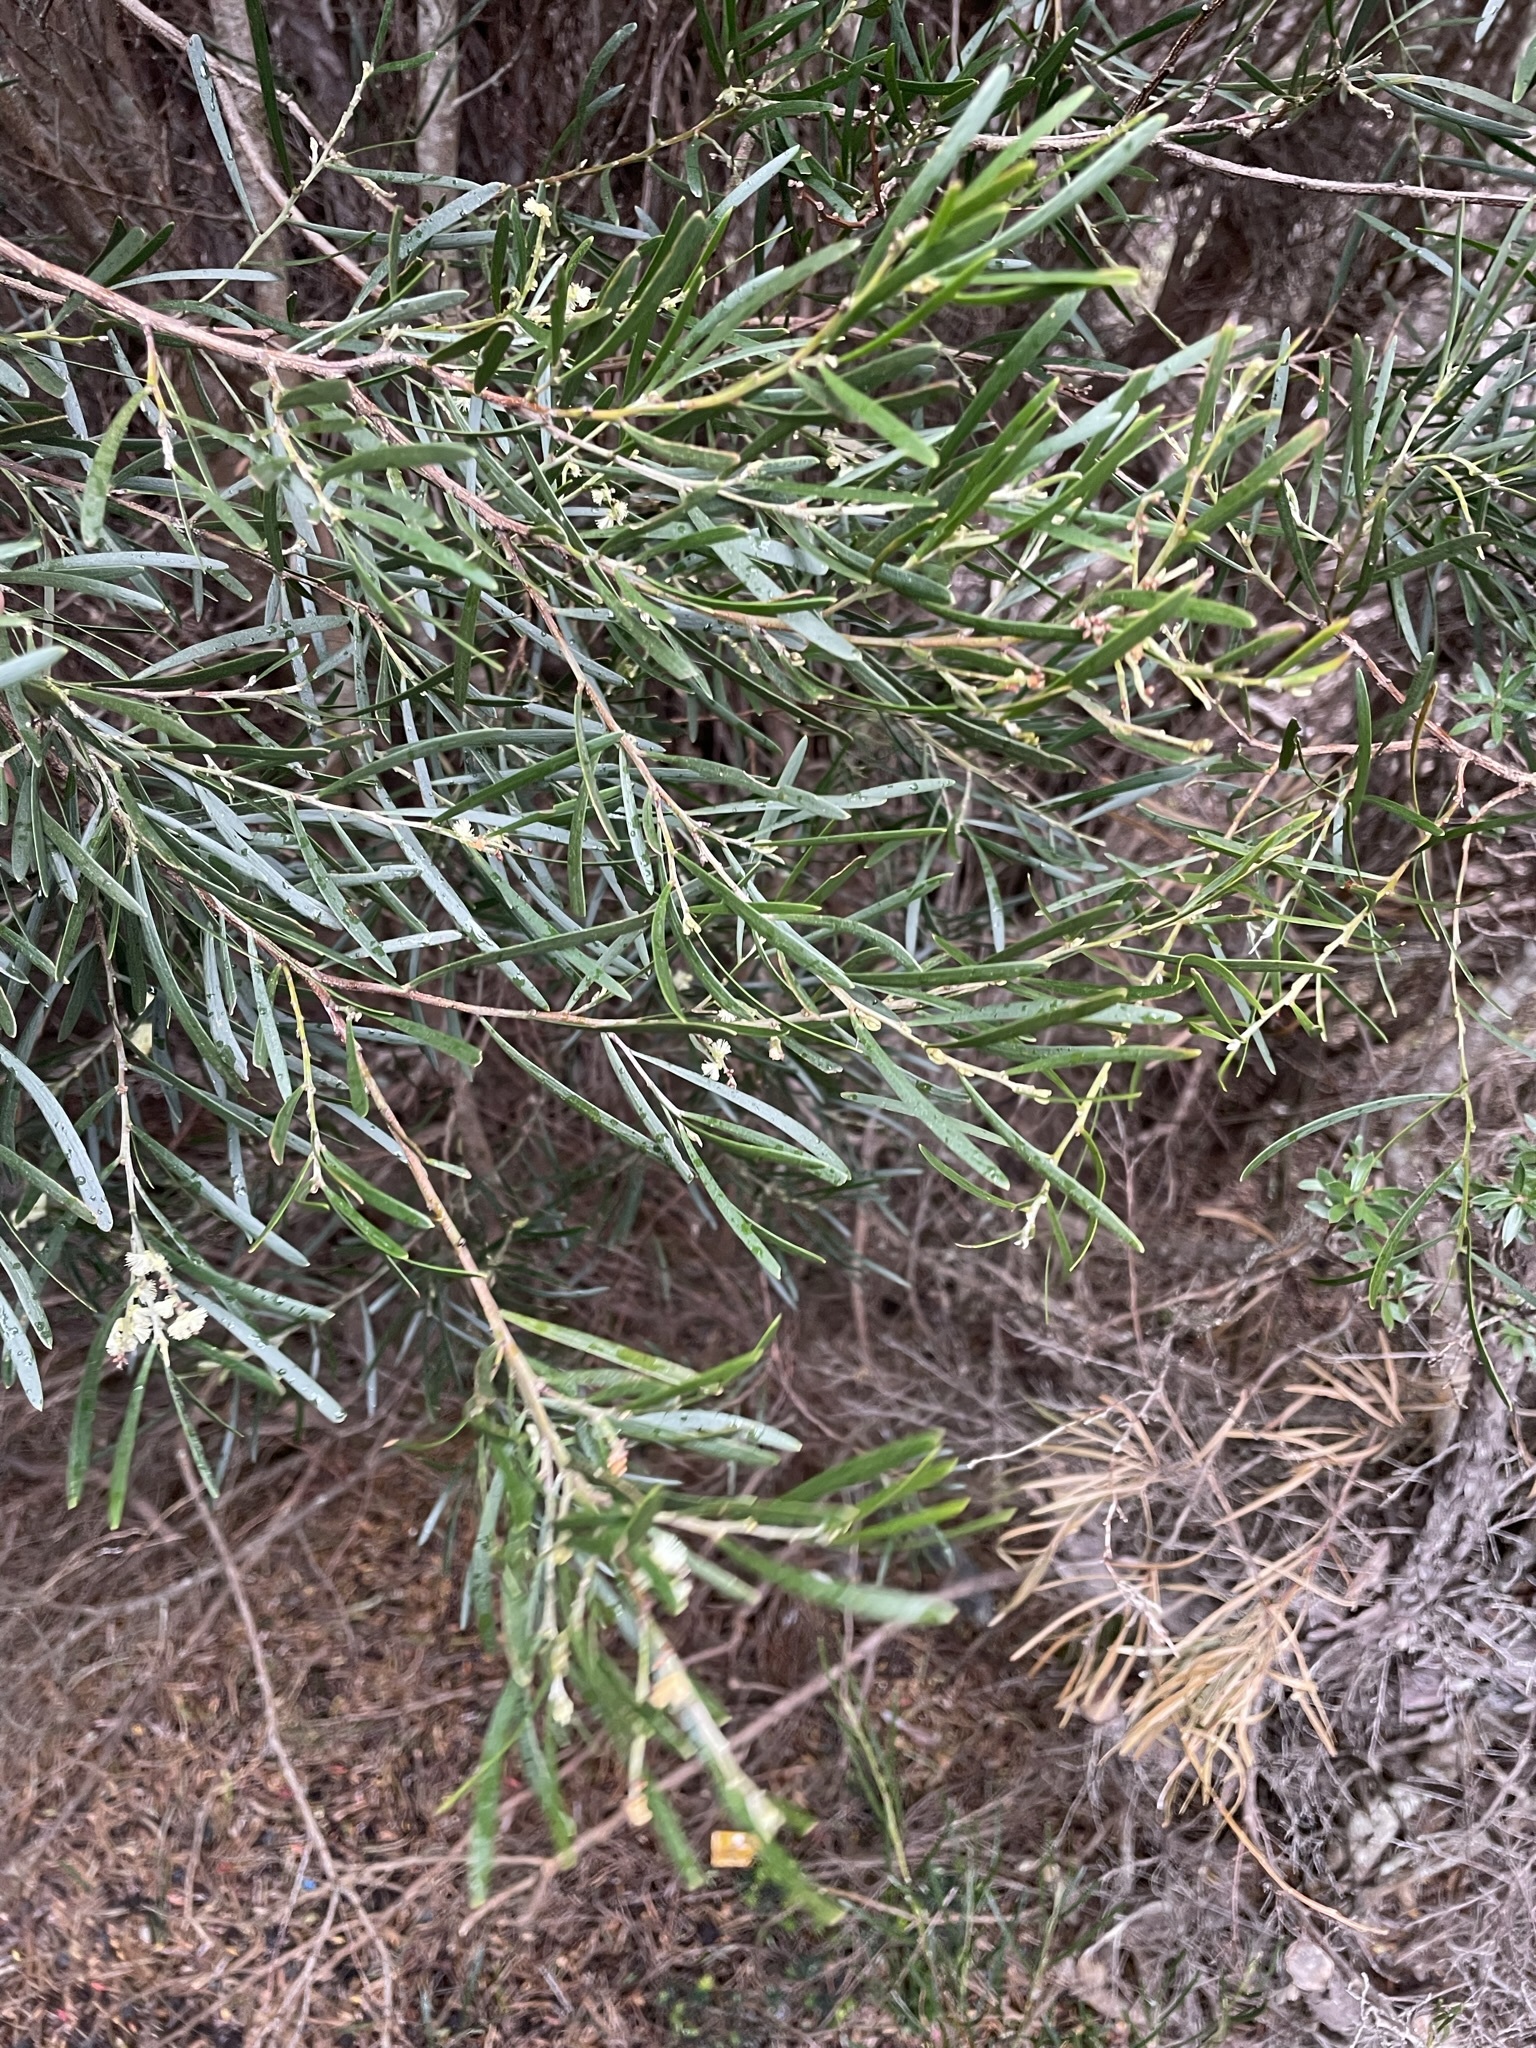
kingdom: Plantae
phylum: Tracheophyta
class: Magnoliopsida
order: Fabales
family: Fabaceae
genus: Acacia
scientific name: Acacia mucronata
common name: Variable sallow wattle
